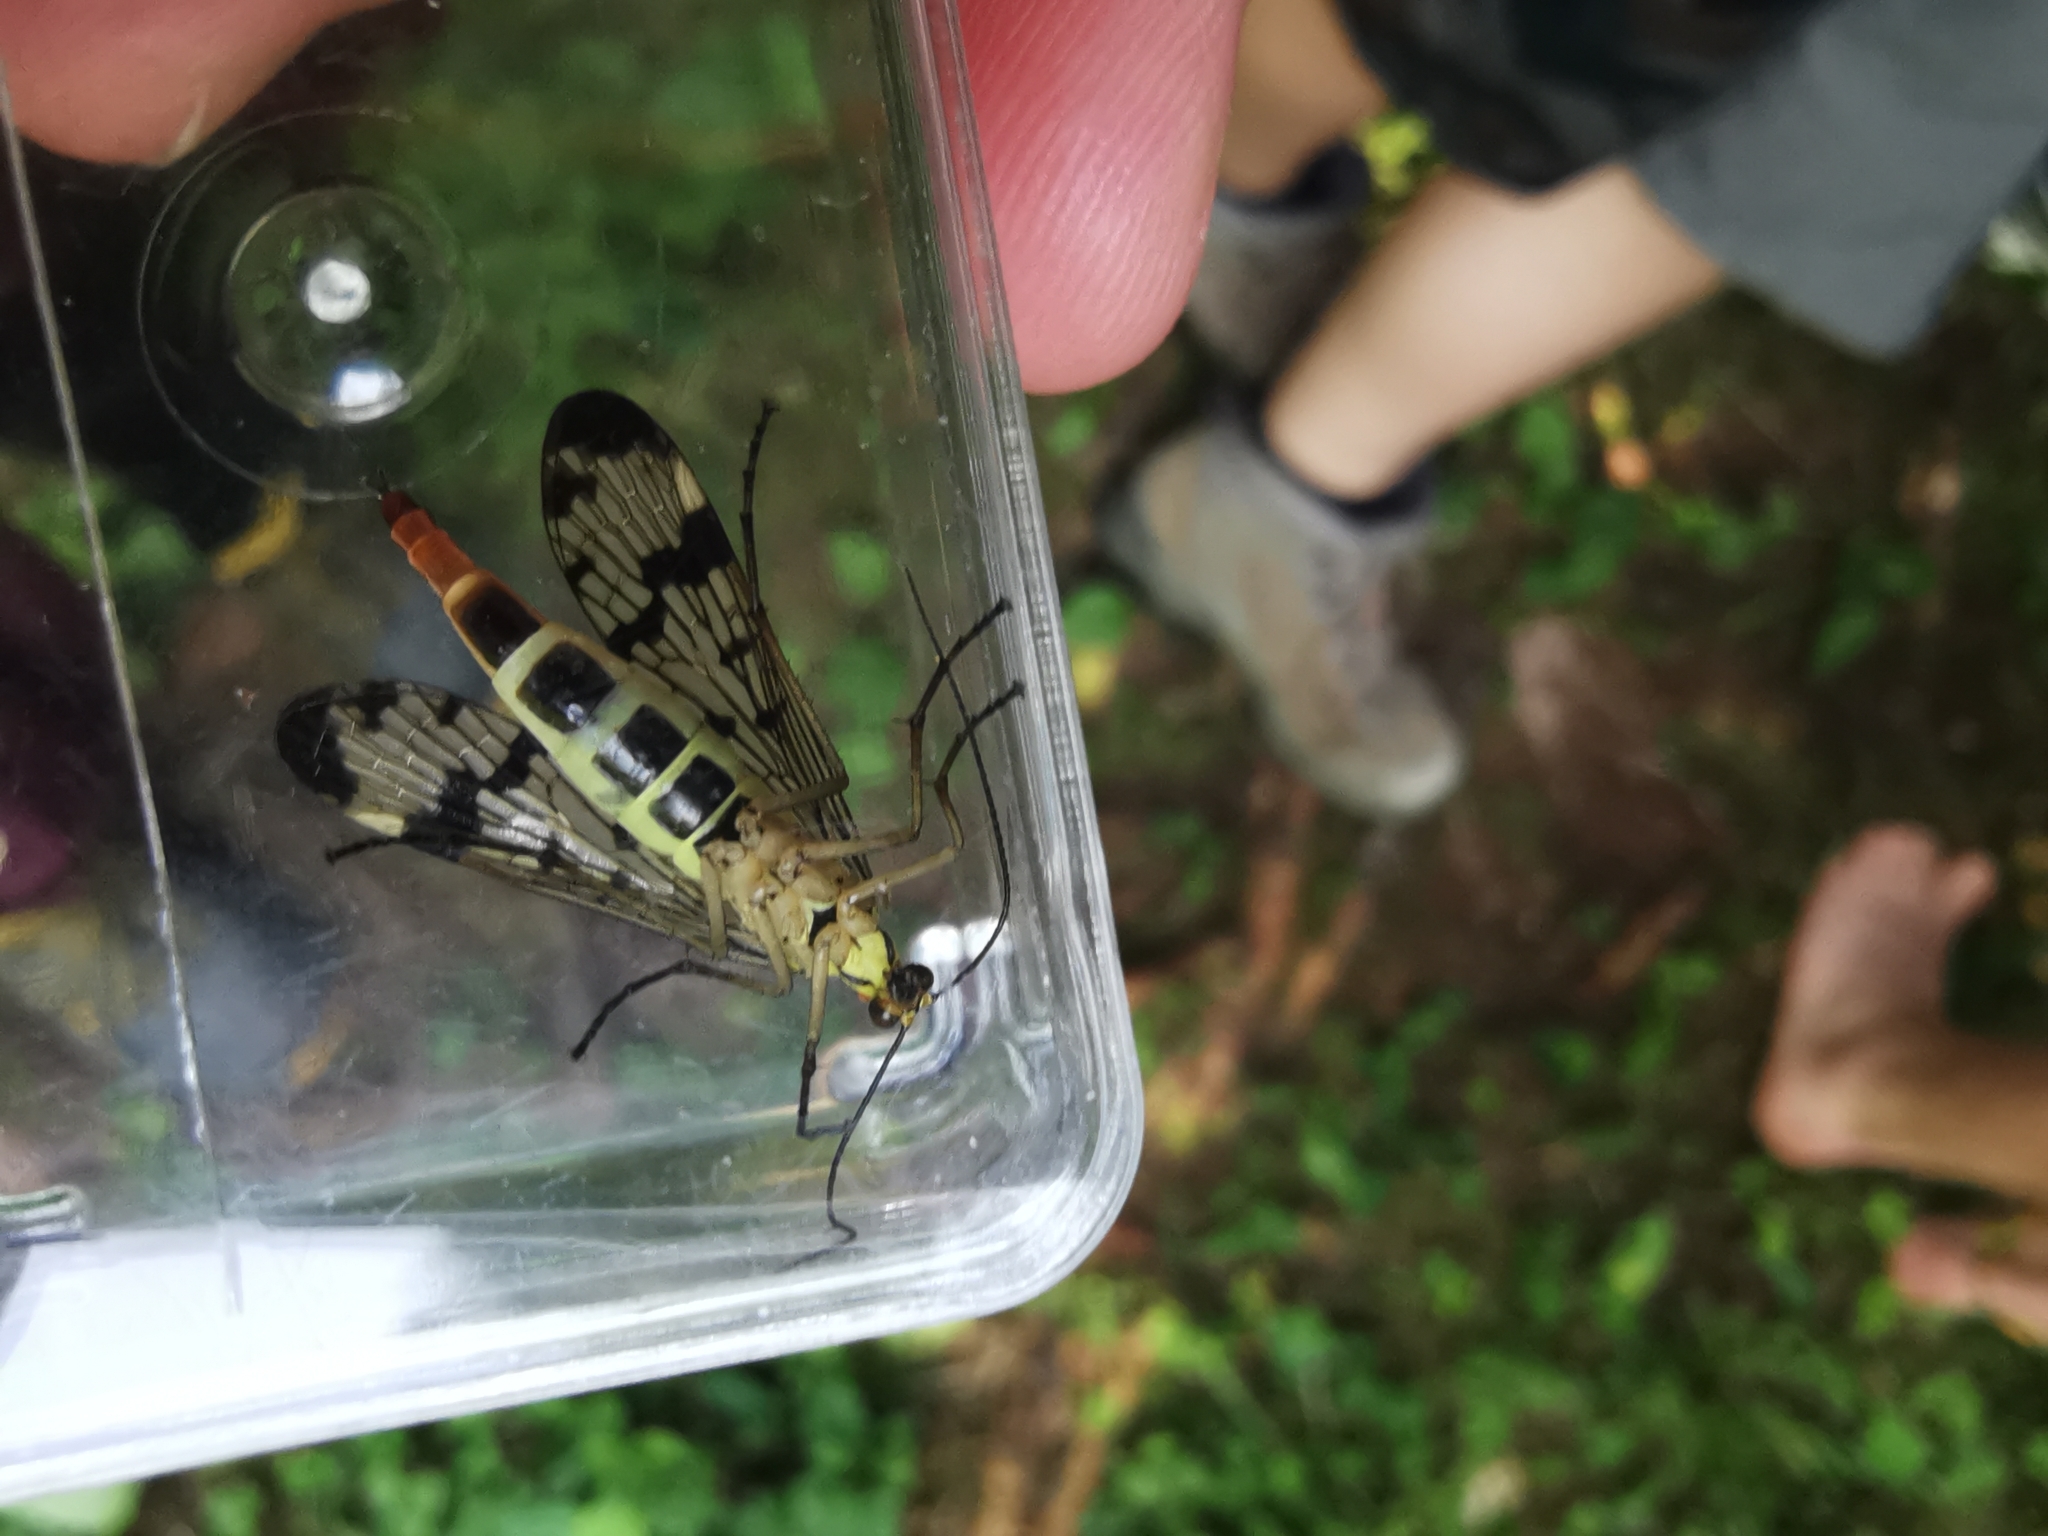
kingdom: Animalia
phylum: Arthropoda
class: Insecta
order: Mecoptera
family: Panorpidae
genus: Panorpa
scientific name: Panorpa communis
